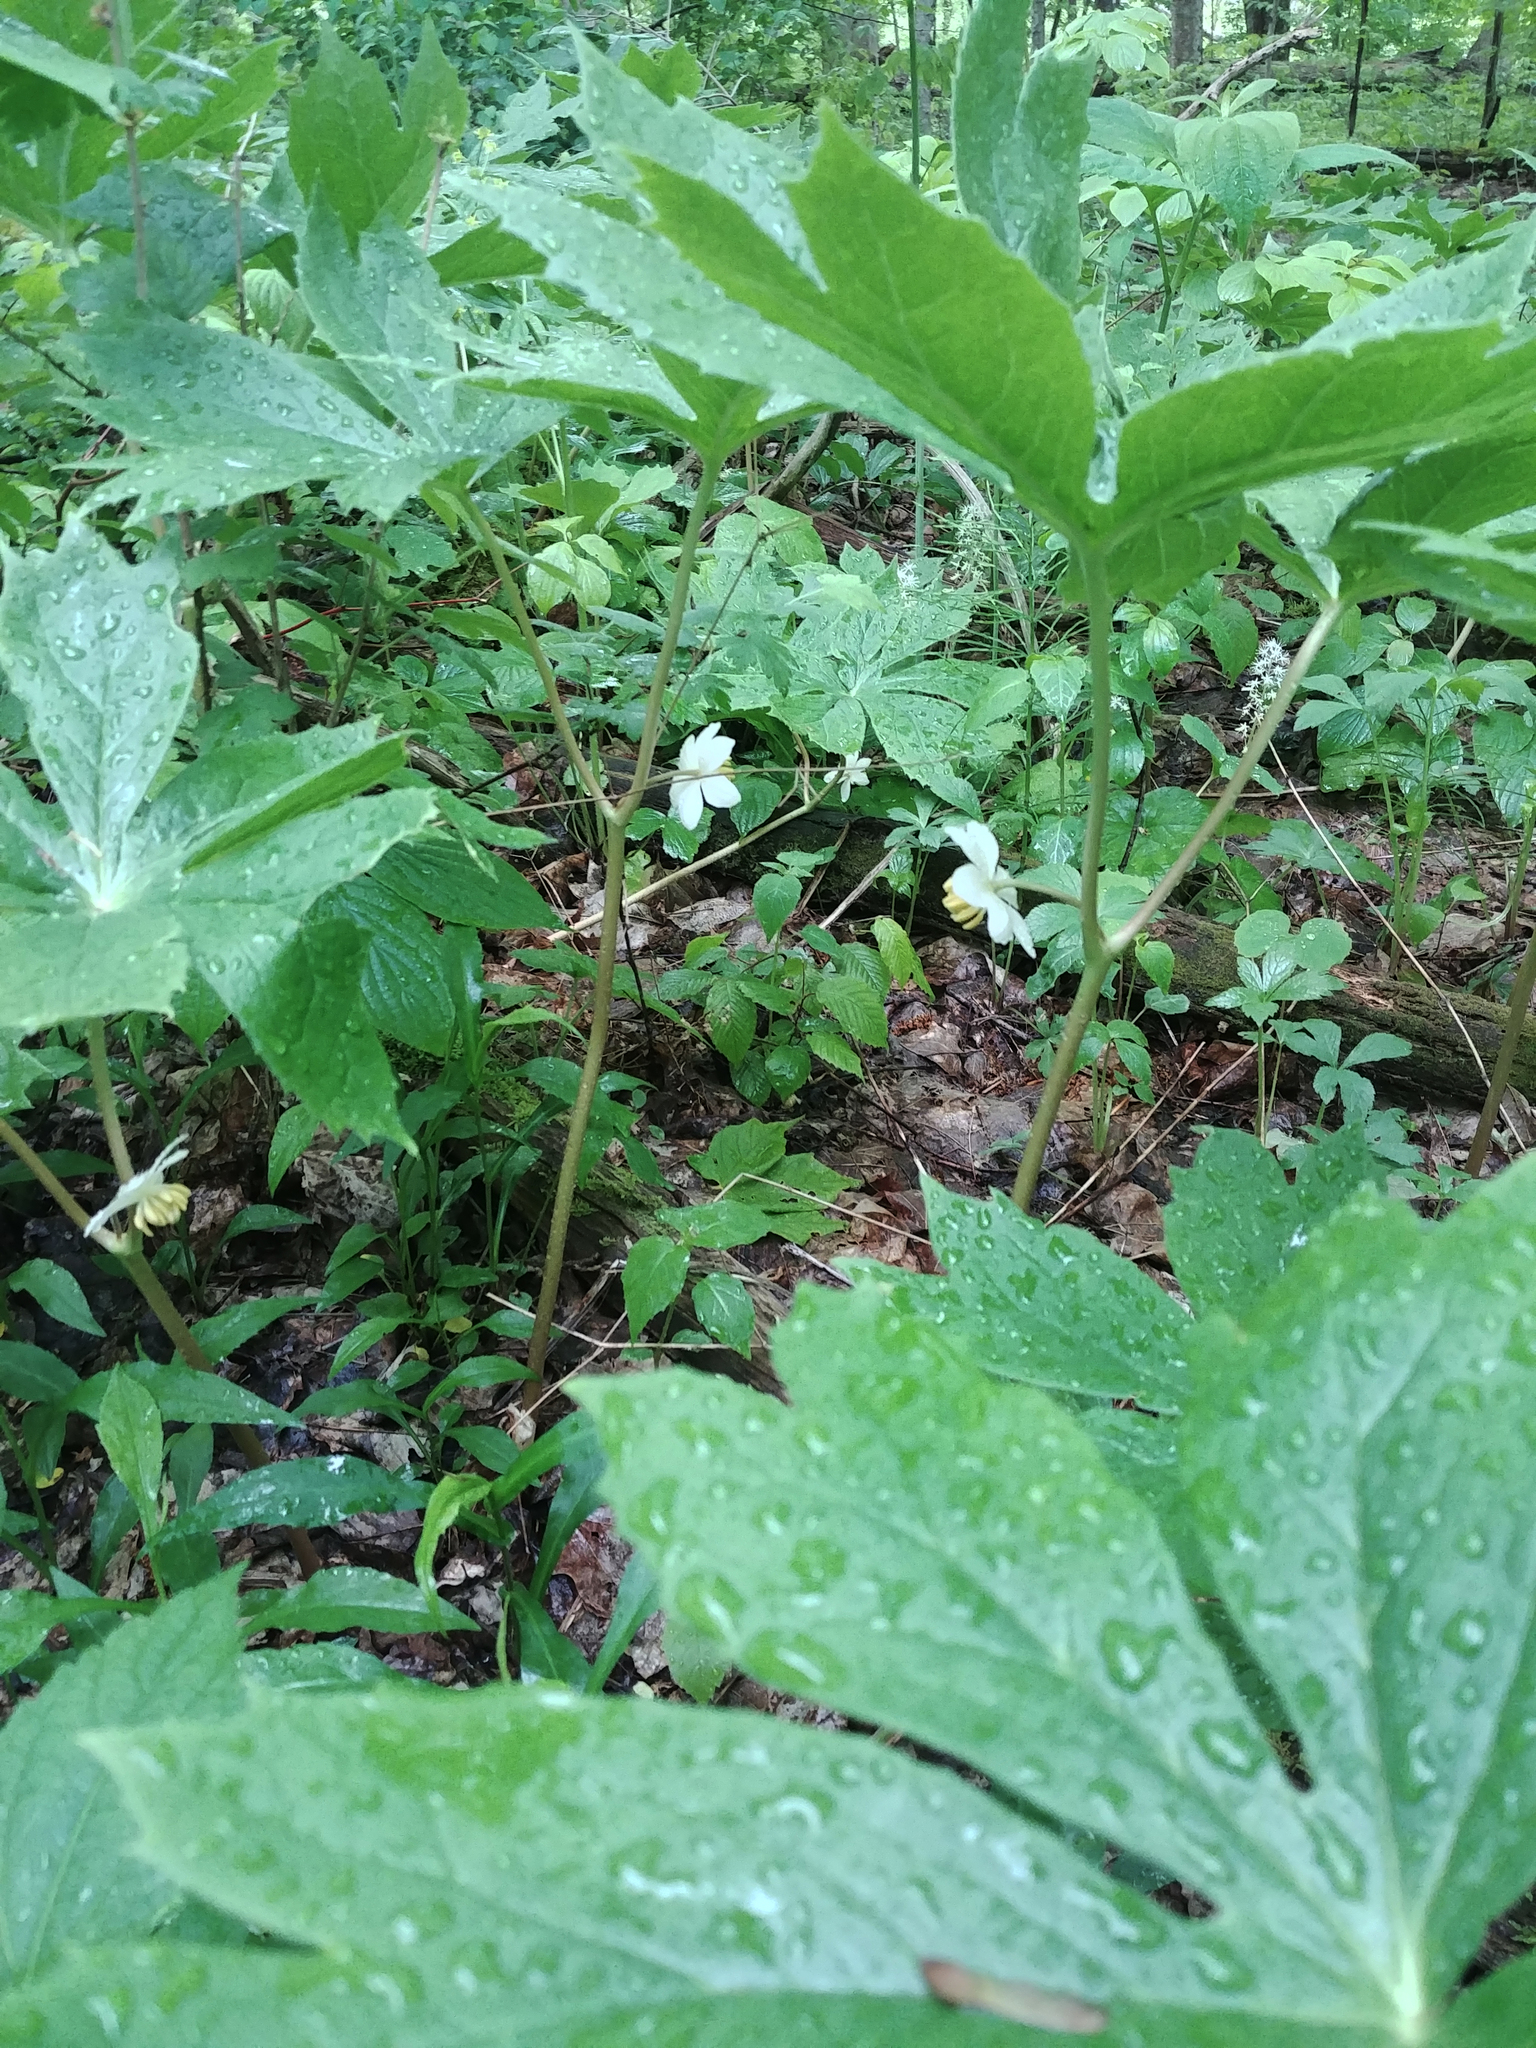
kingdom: Plantae
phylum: Tracheophyta
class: Magnoliopsida
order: Ranunculales
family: Berberidaceae
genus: Podophyllum
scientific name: Podophyllum peltatum
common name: Wild mandrake
